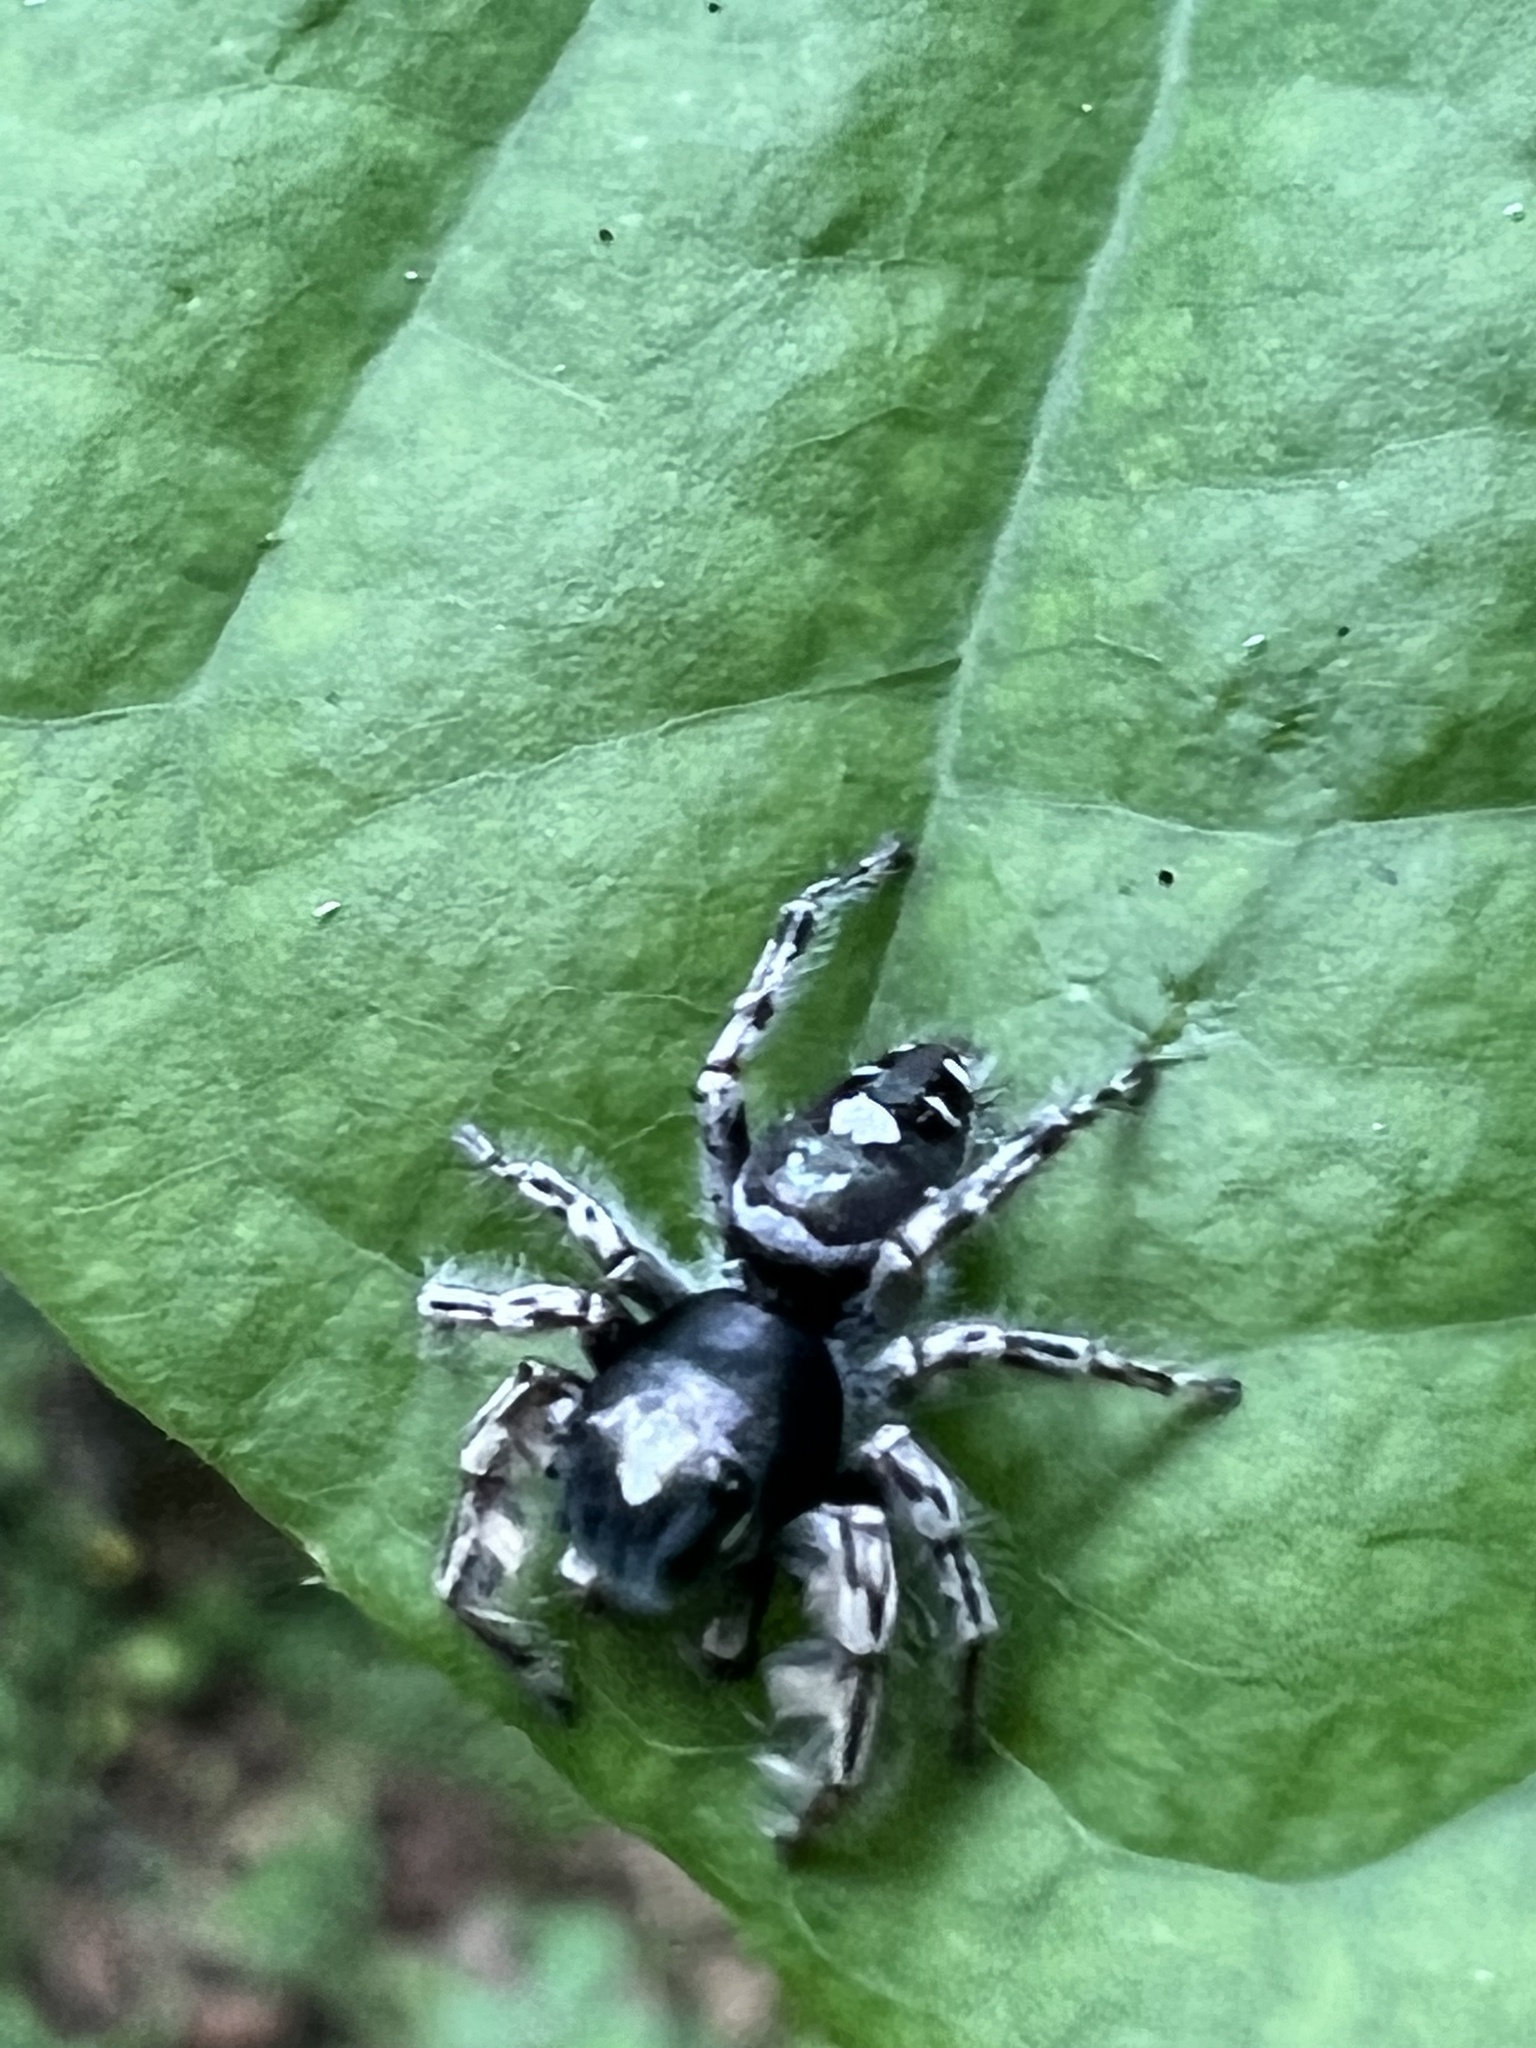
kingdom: Animalia
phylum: Arthropoda
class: Arachnida
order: Araneae
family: Salticidae
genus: Phidippus
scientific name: Phidippus putnami
